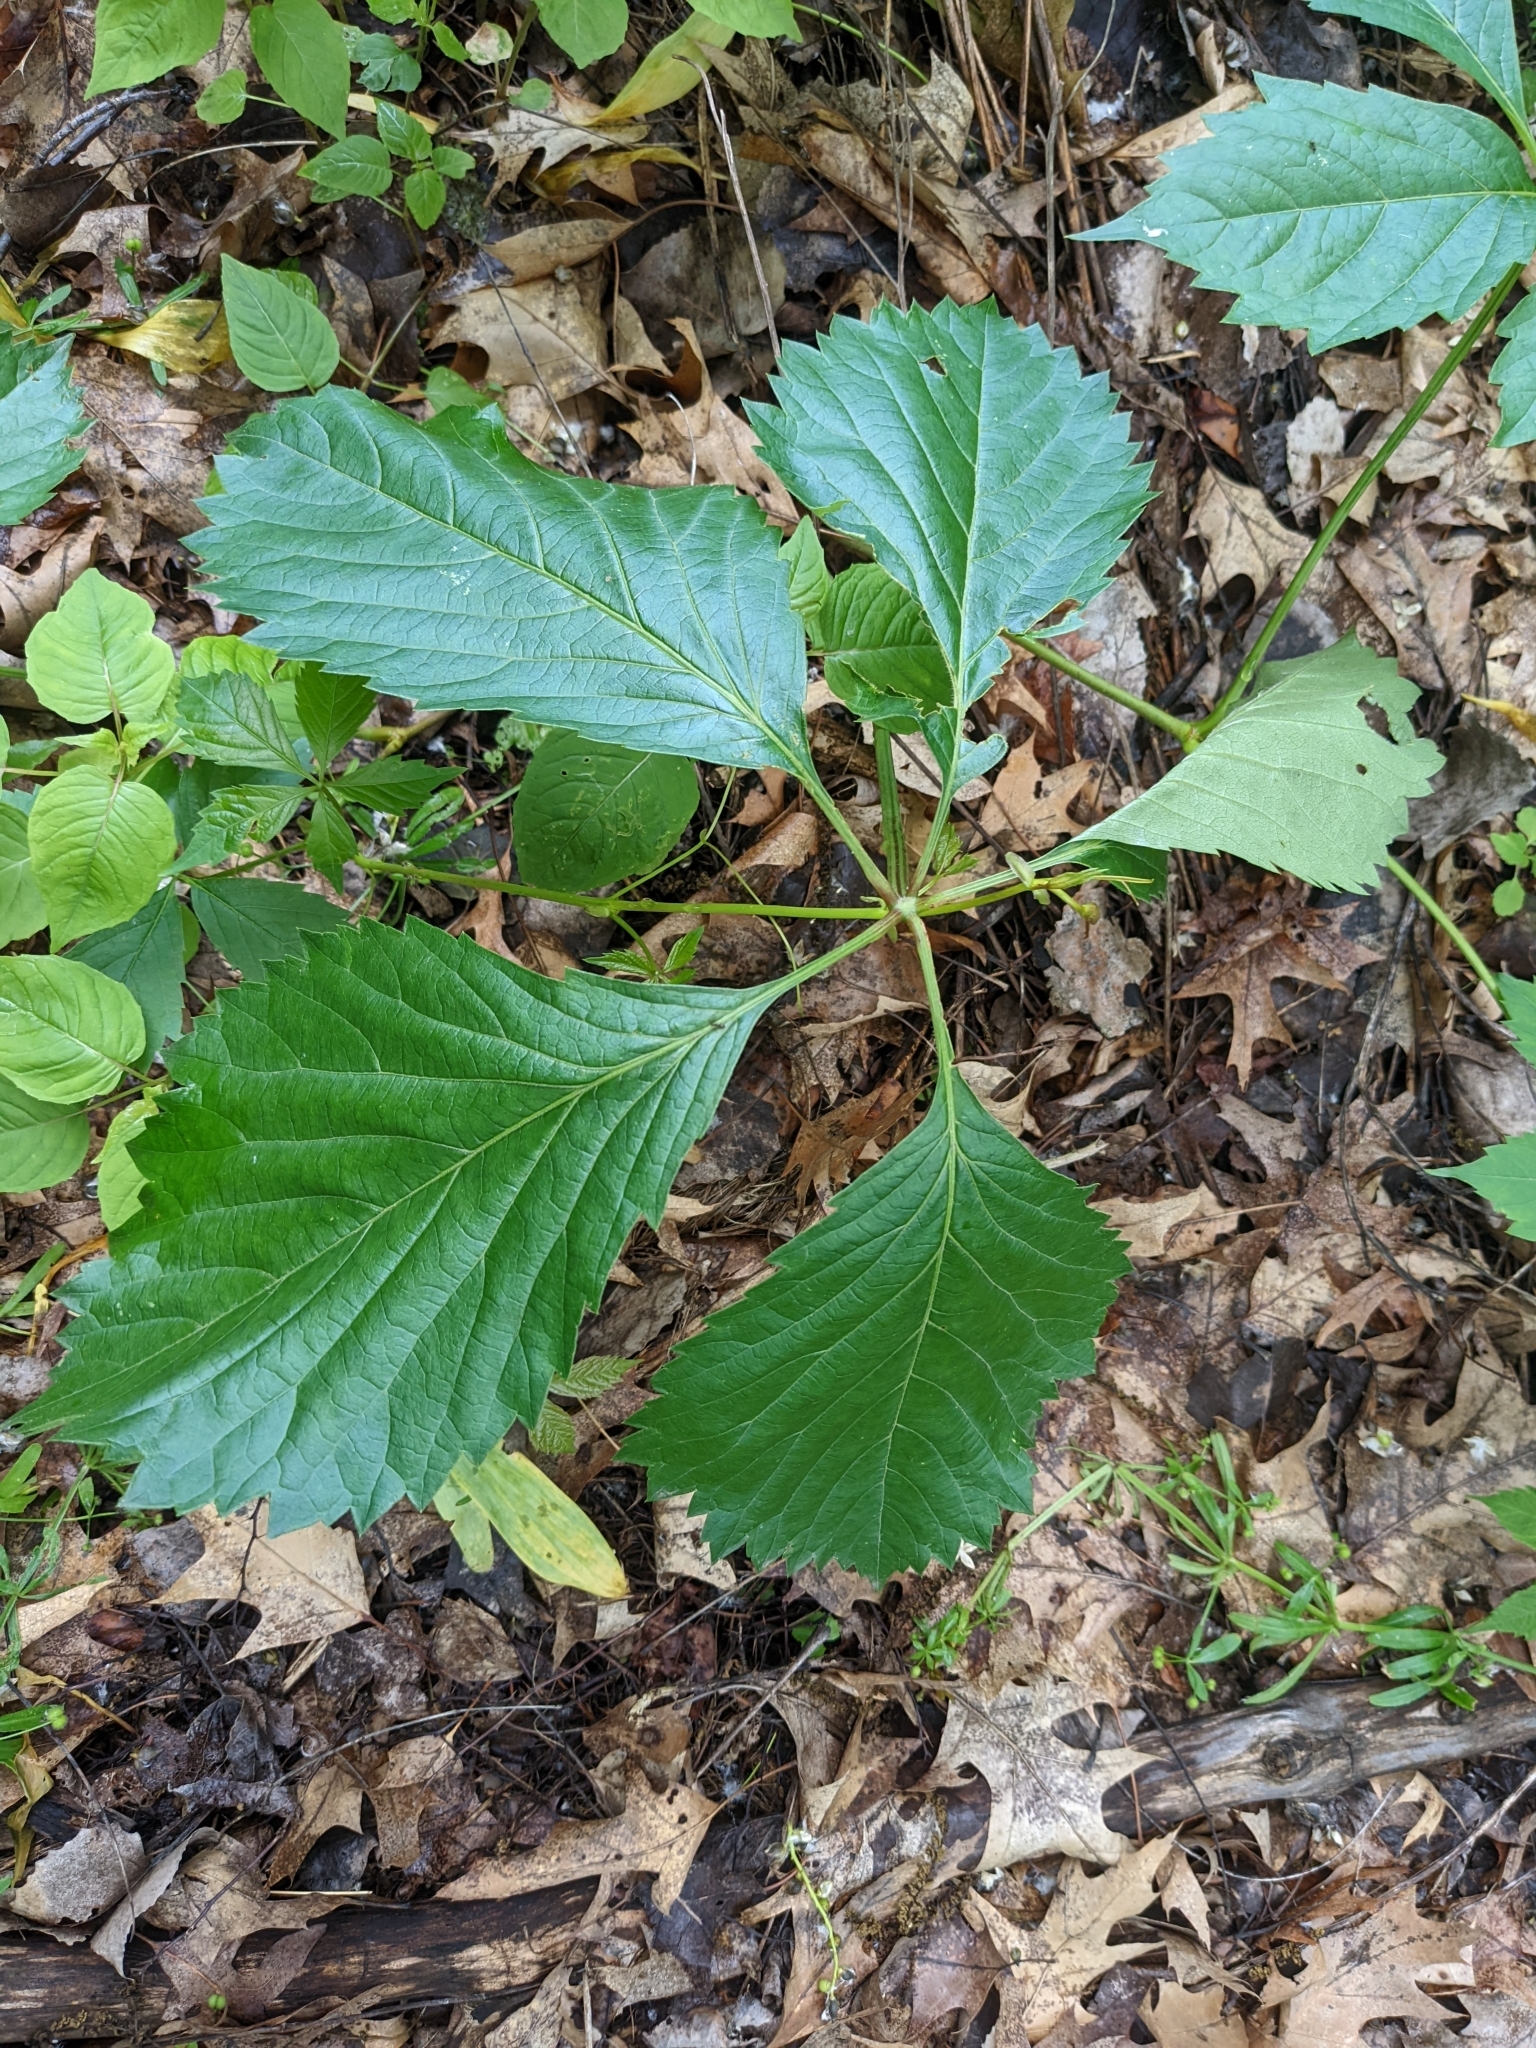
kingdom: Plantae
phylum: Tracheophyta
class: Magnoliopsida
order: Vitales
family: Vitaceae
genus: Parthenocissus
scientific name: Parthenocissus quinquefolia
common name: Virginia-creeper
